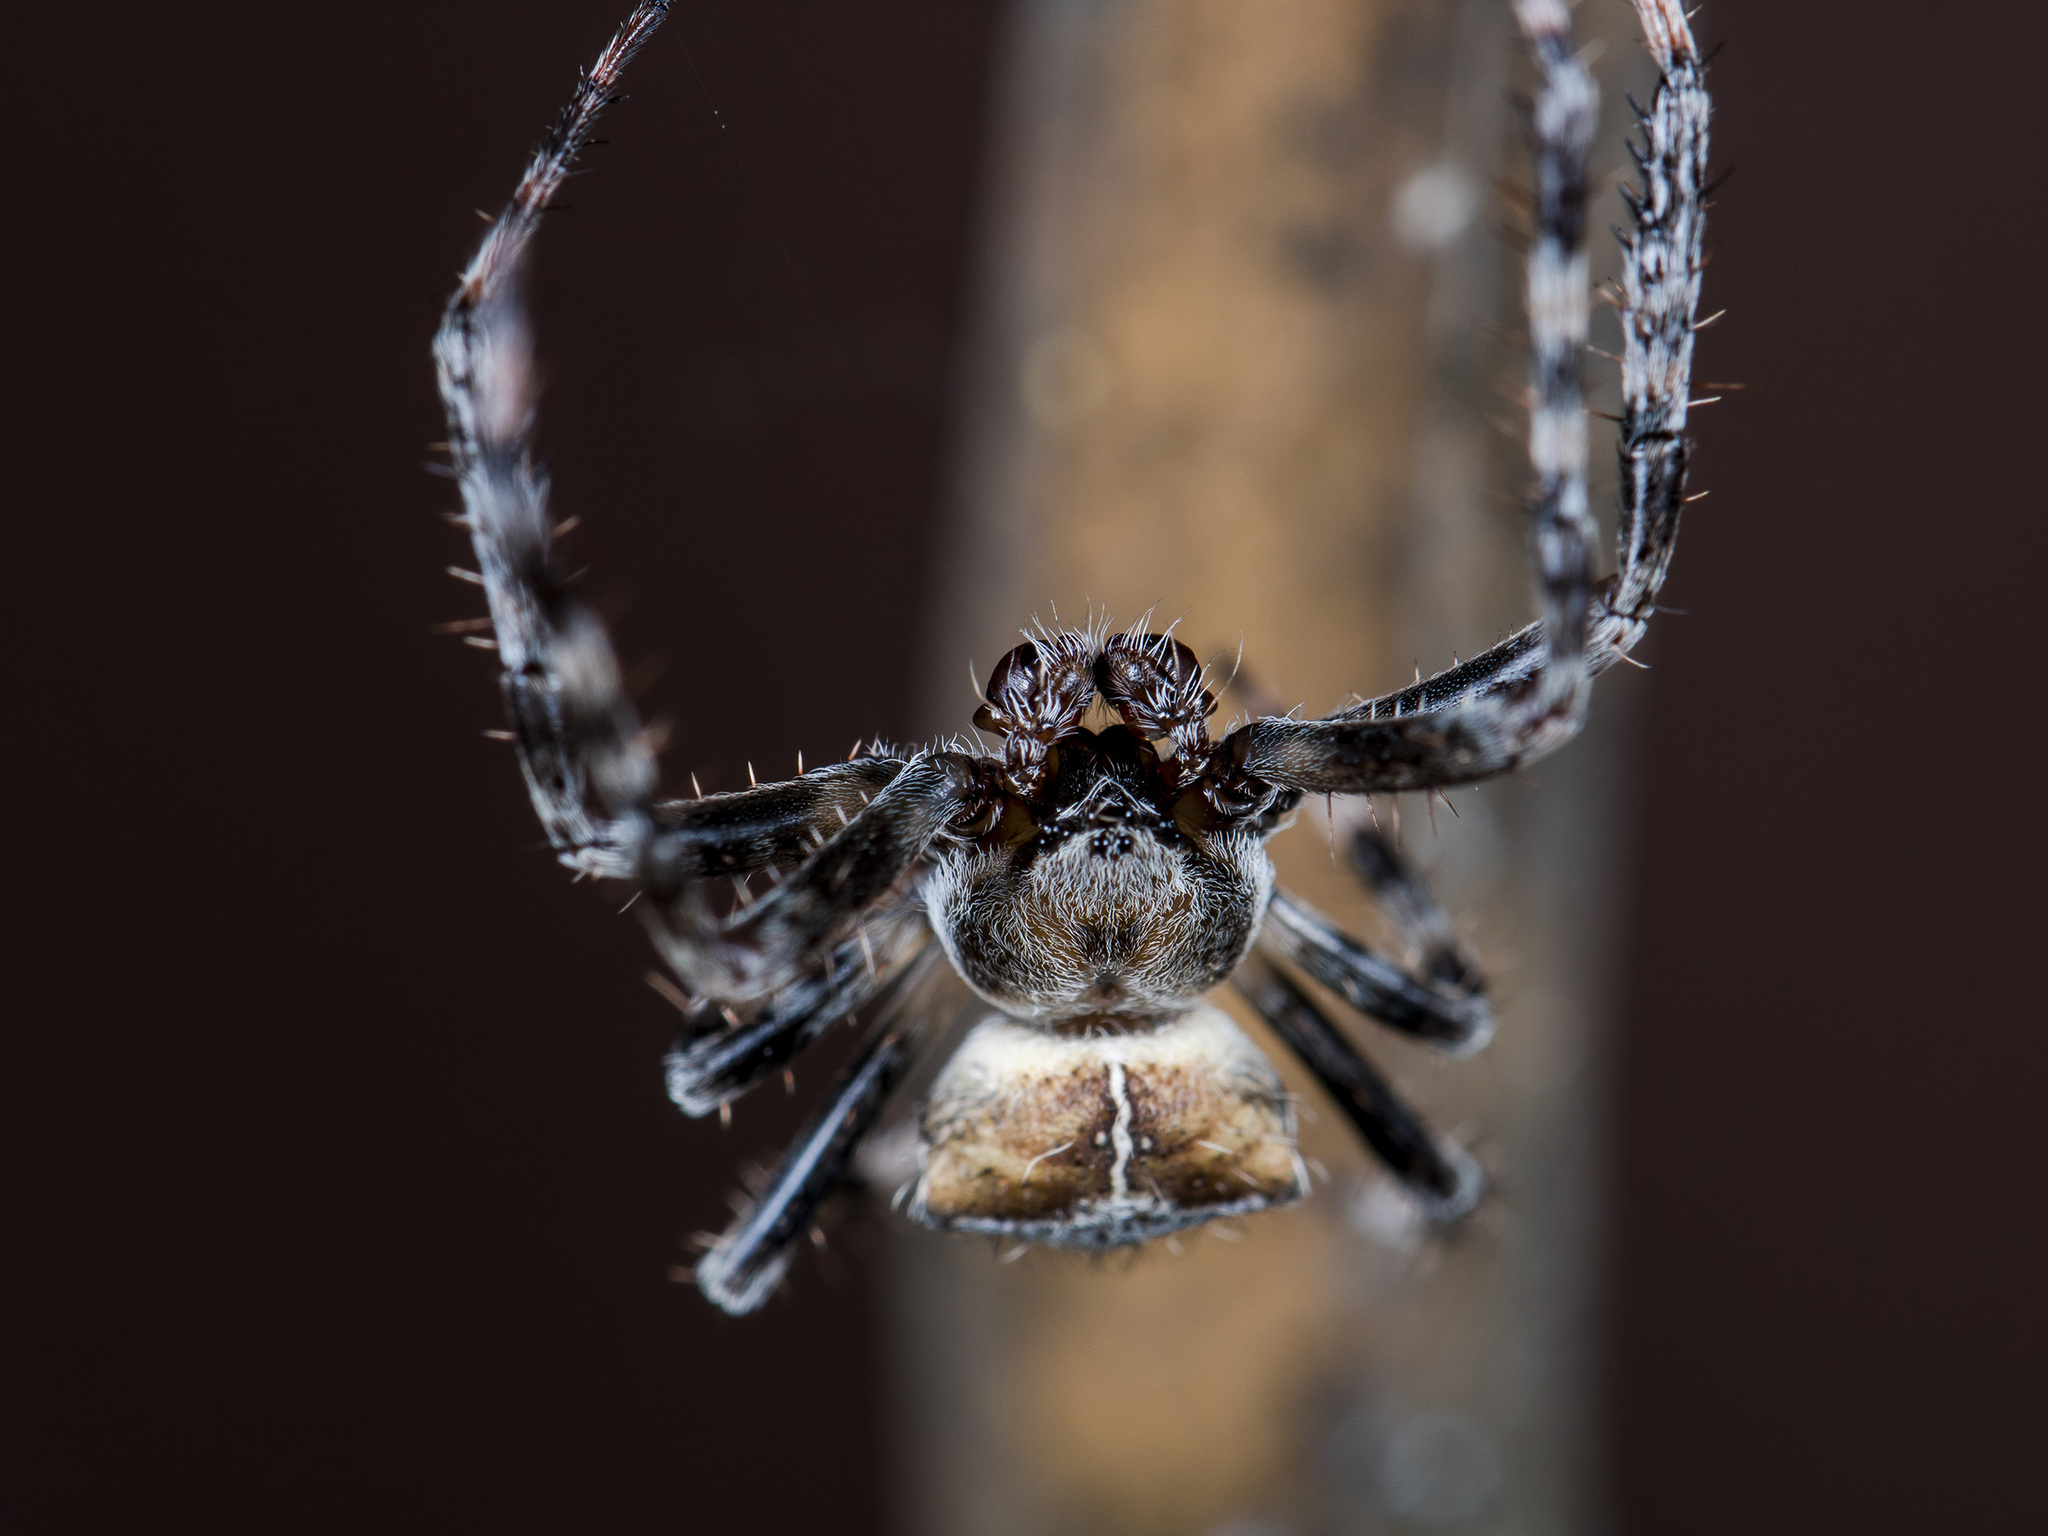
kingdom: Animalia
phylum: Arthropoda
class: Arachnida
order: Araneae
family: Araneidae
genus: Araneus
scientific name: Araneus tartaricus
